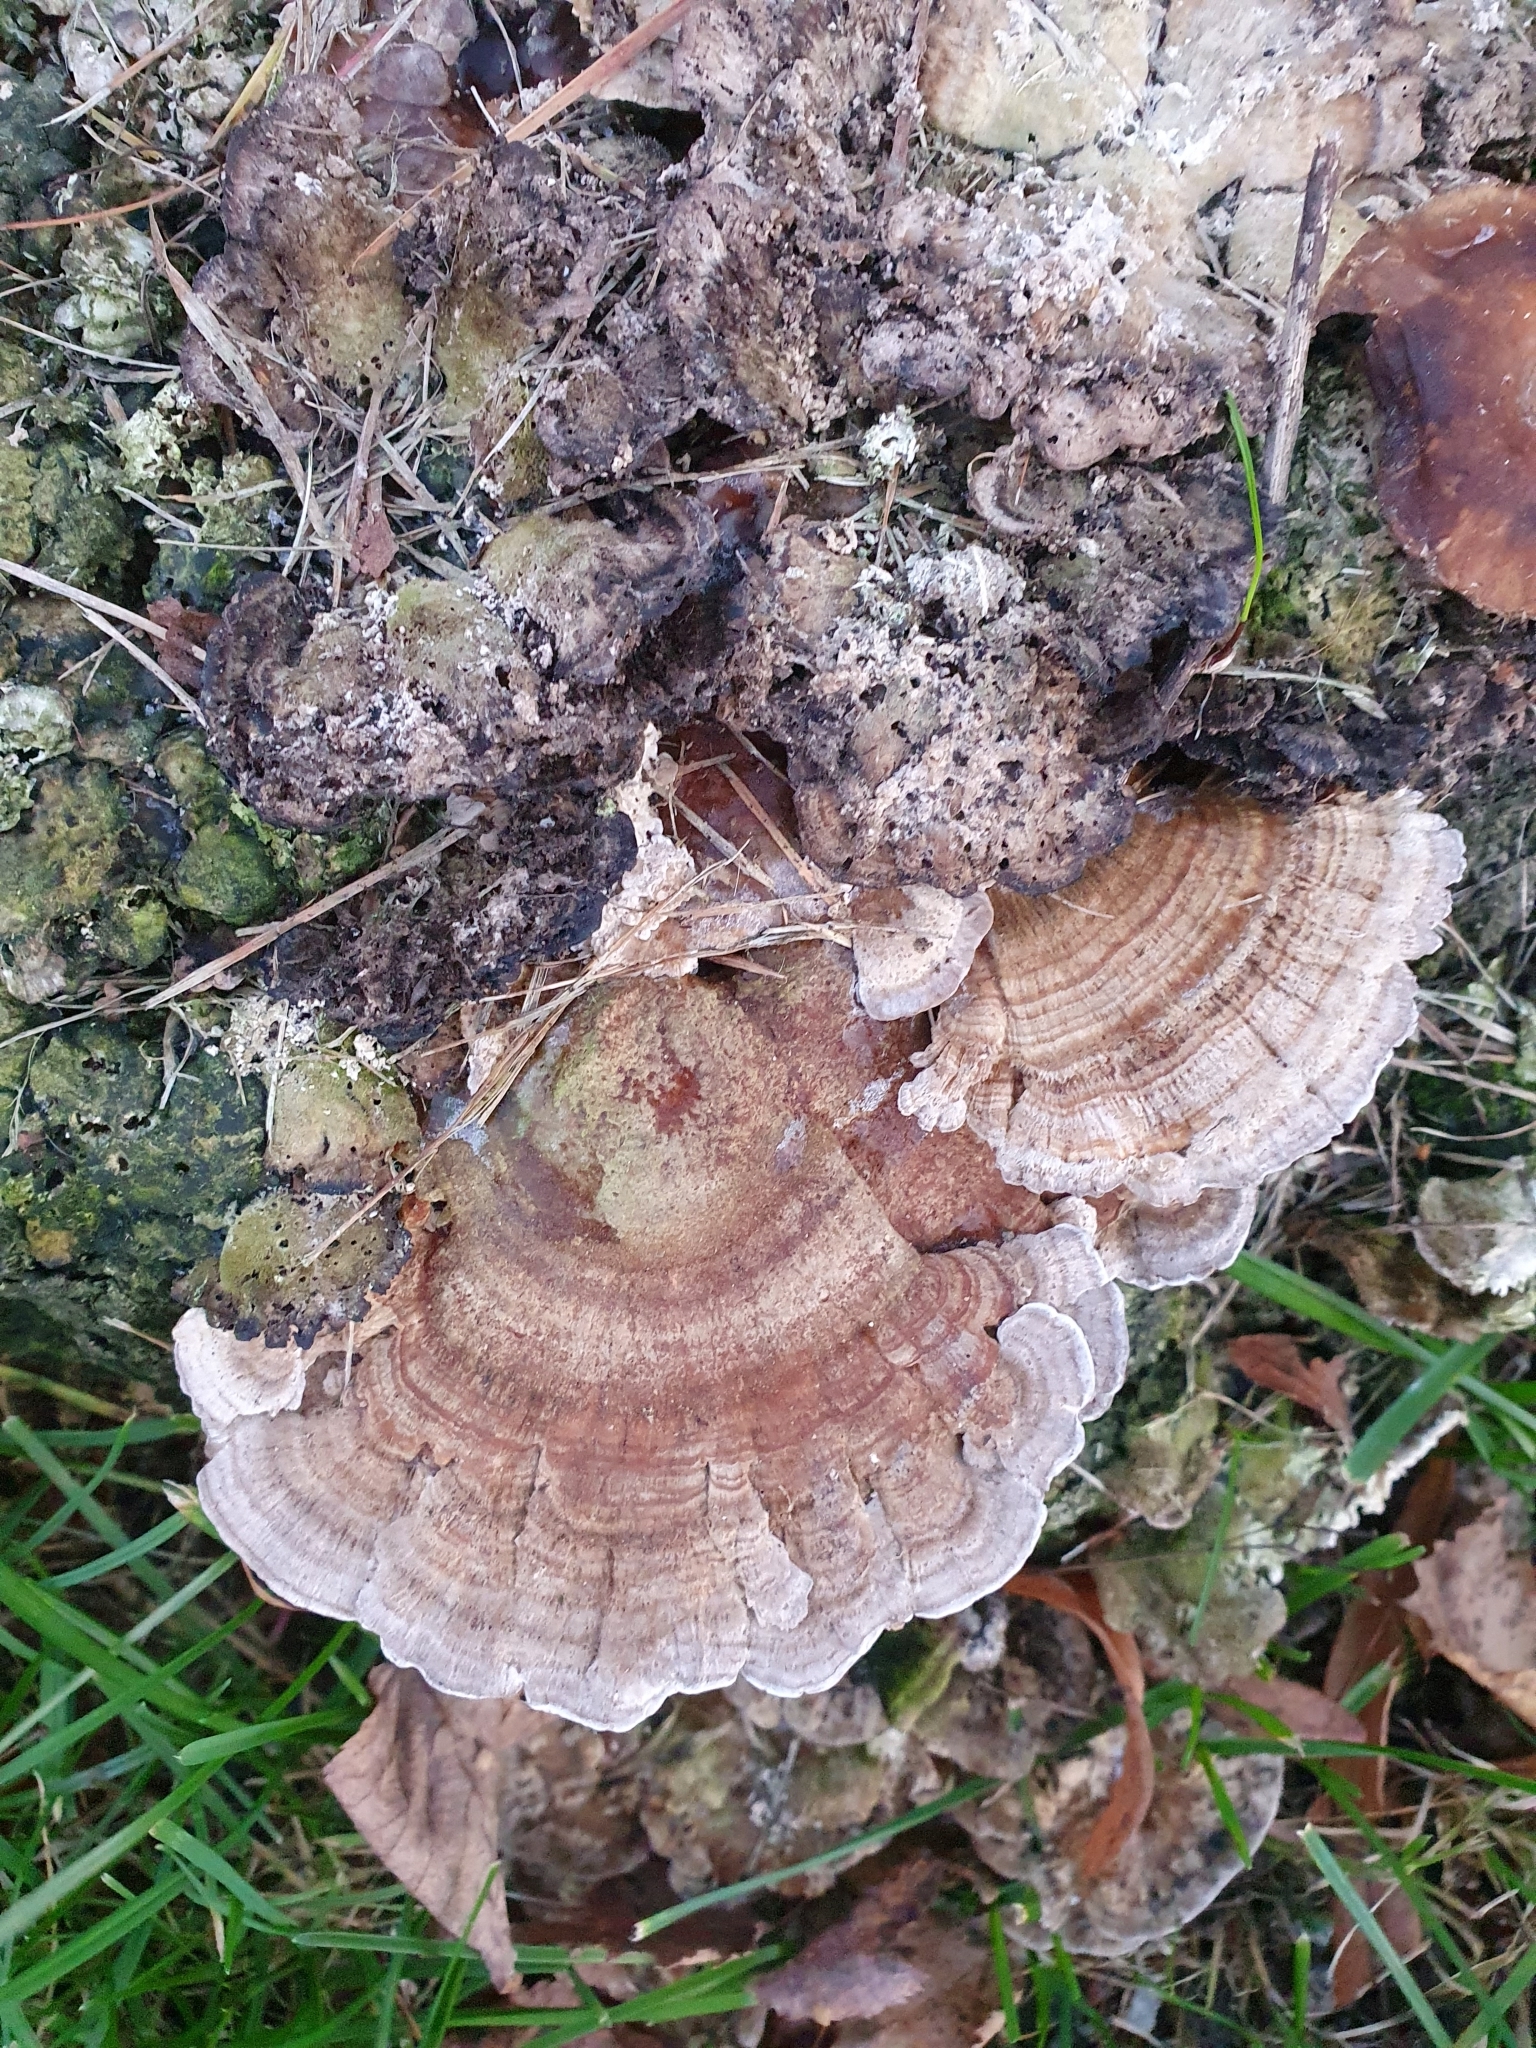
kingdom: Fungi
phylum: Basidiomycota
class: Agaricomycetes
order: Polyporales
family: Polyporaceae
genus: Trametes
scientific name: Trametes ochracea
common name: Ochre bracket
